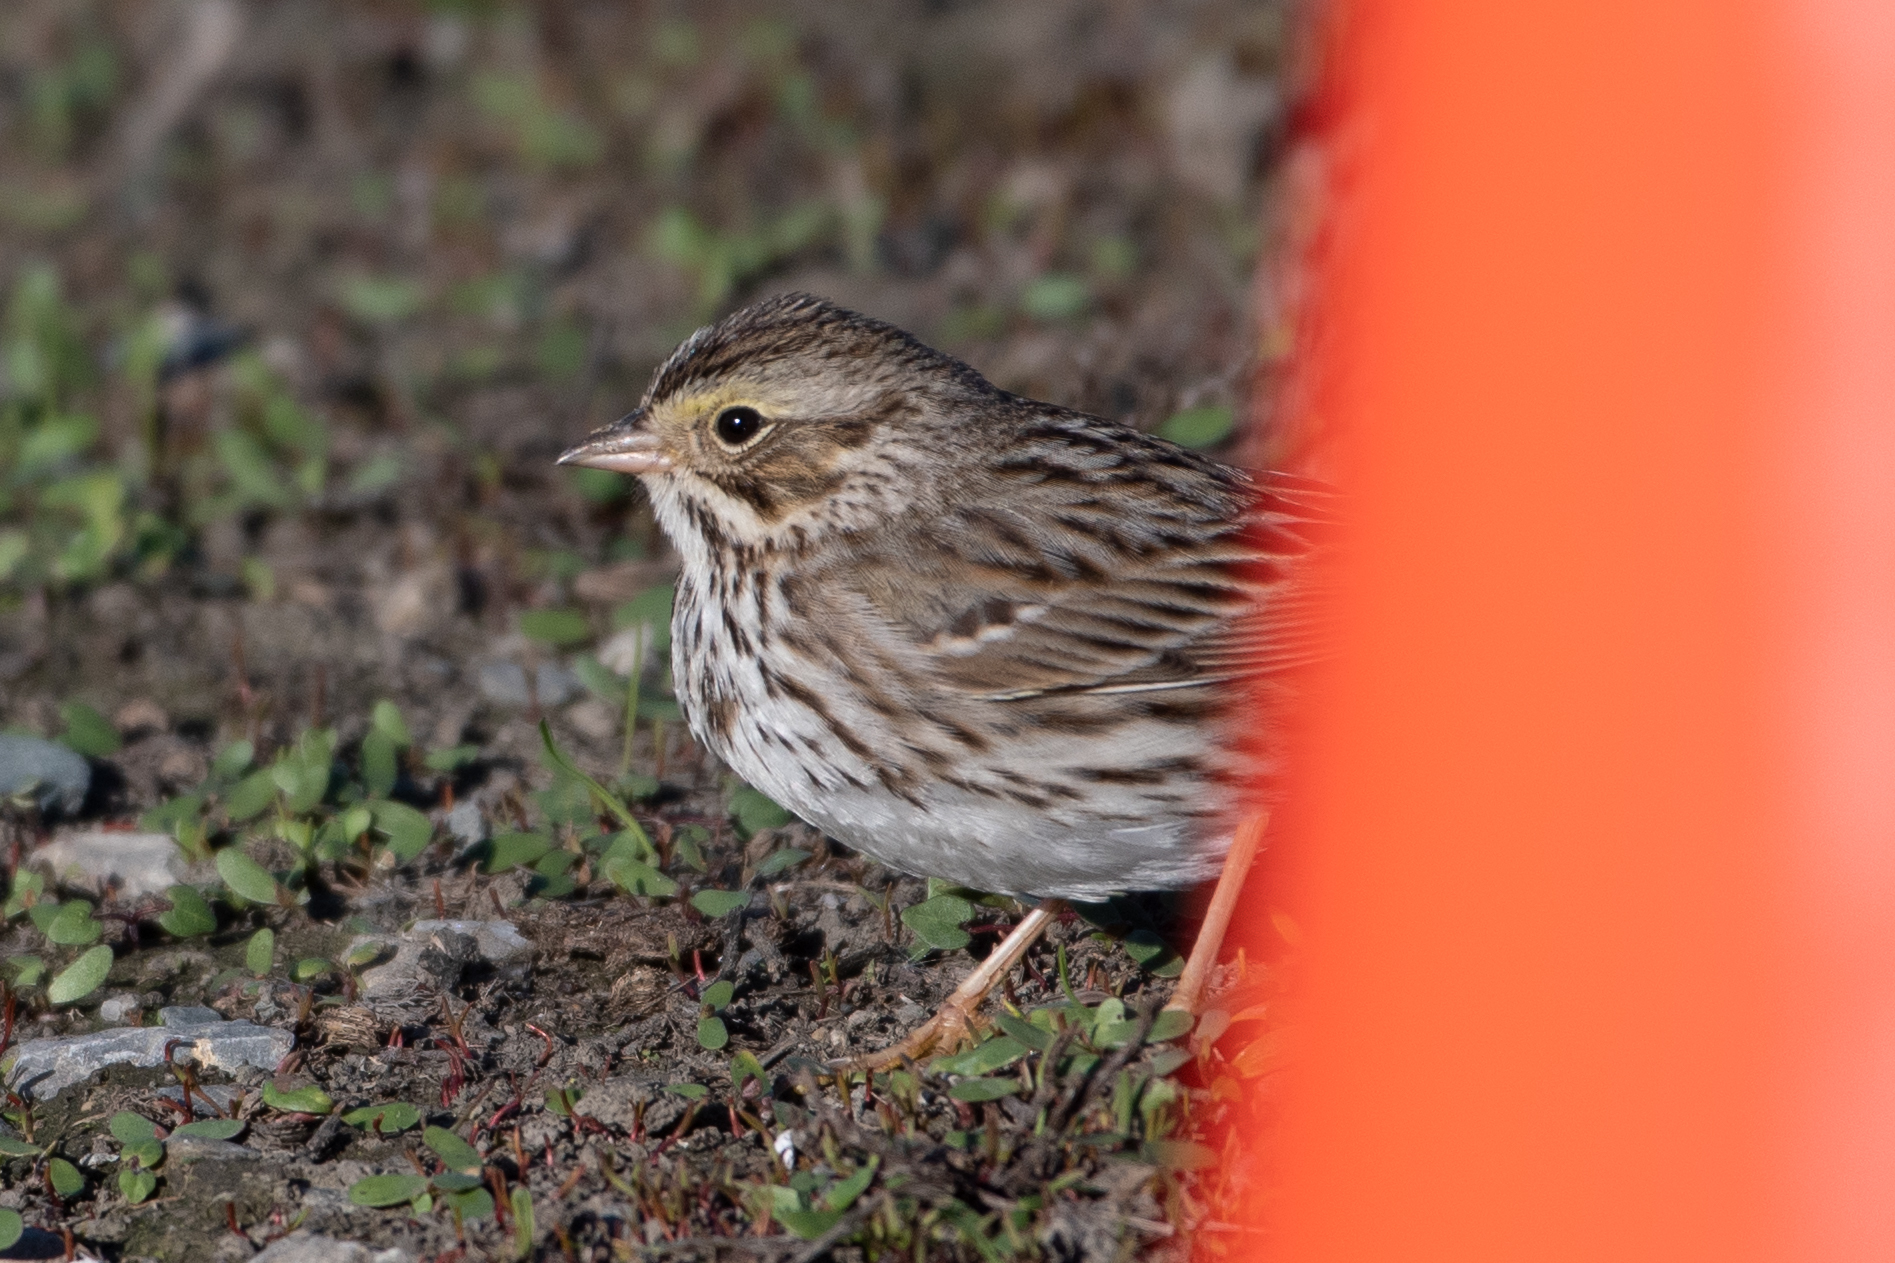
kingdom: Animalia
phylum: Chordata
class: Aves
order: Passeriformes
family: Passerellidae
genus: Passerculus
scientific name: Passerculus sandwichensis
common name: Savannah sparrow
